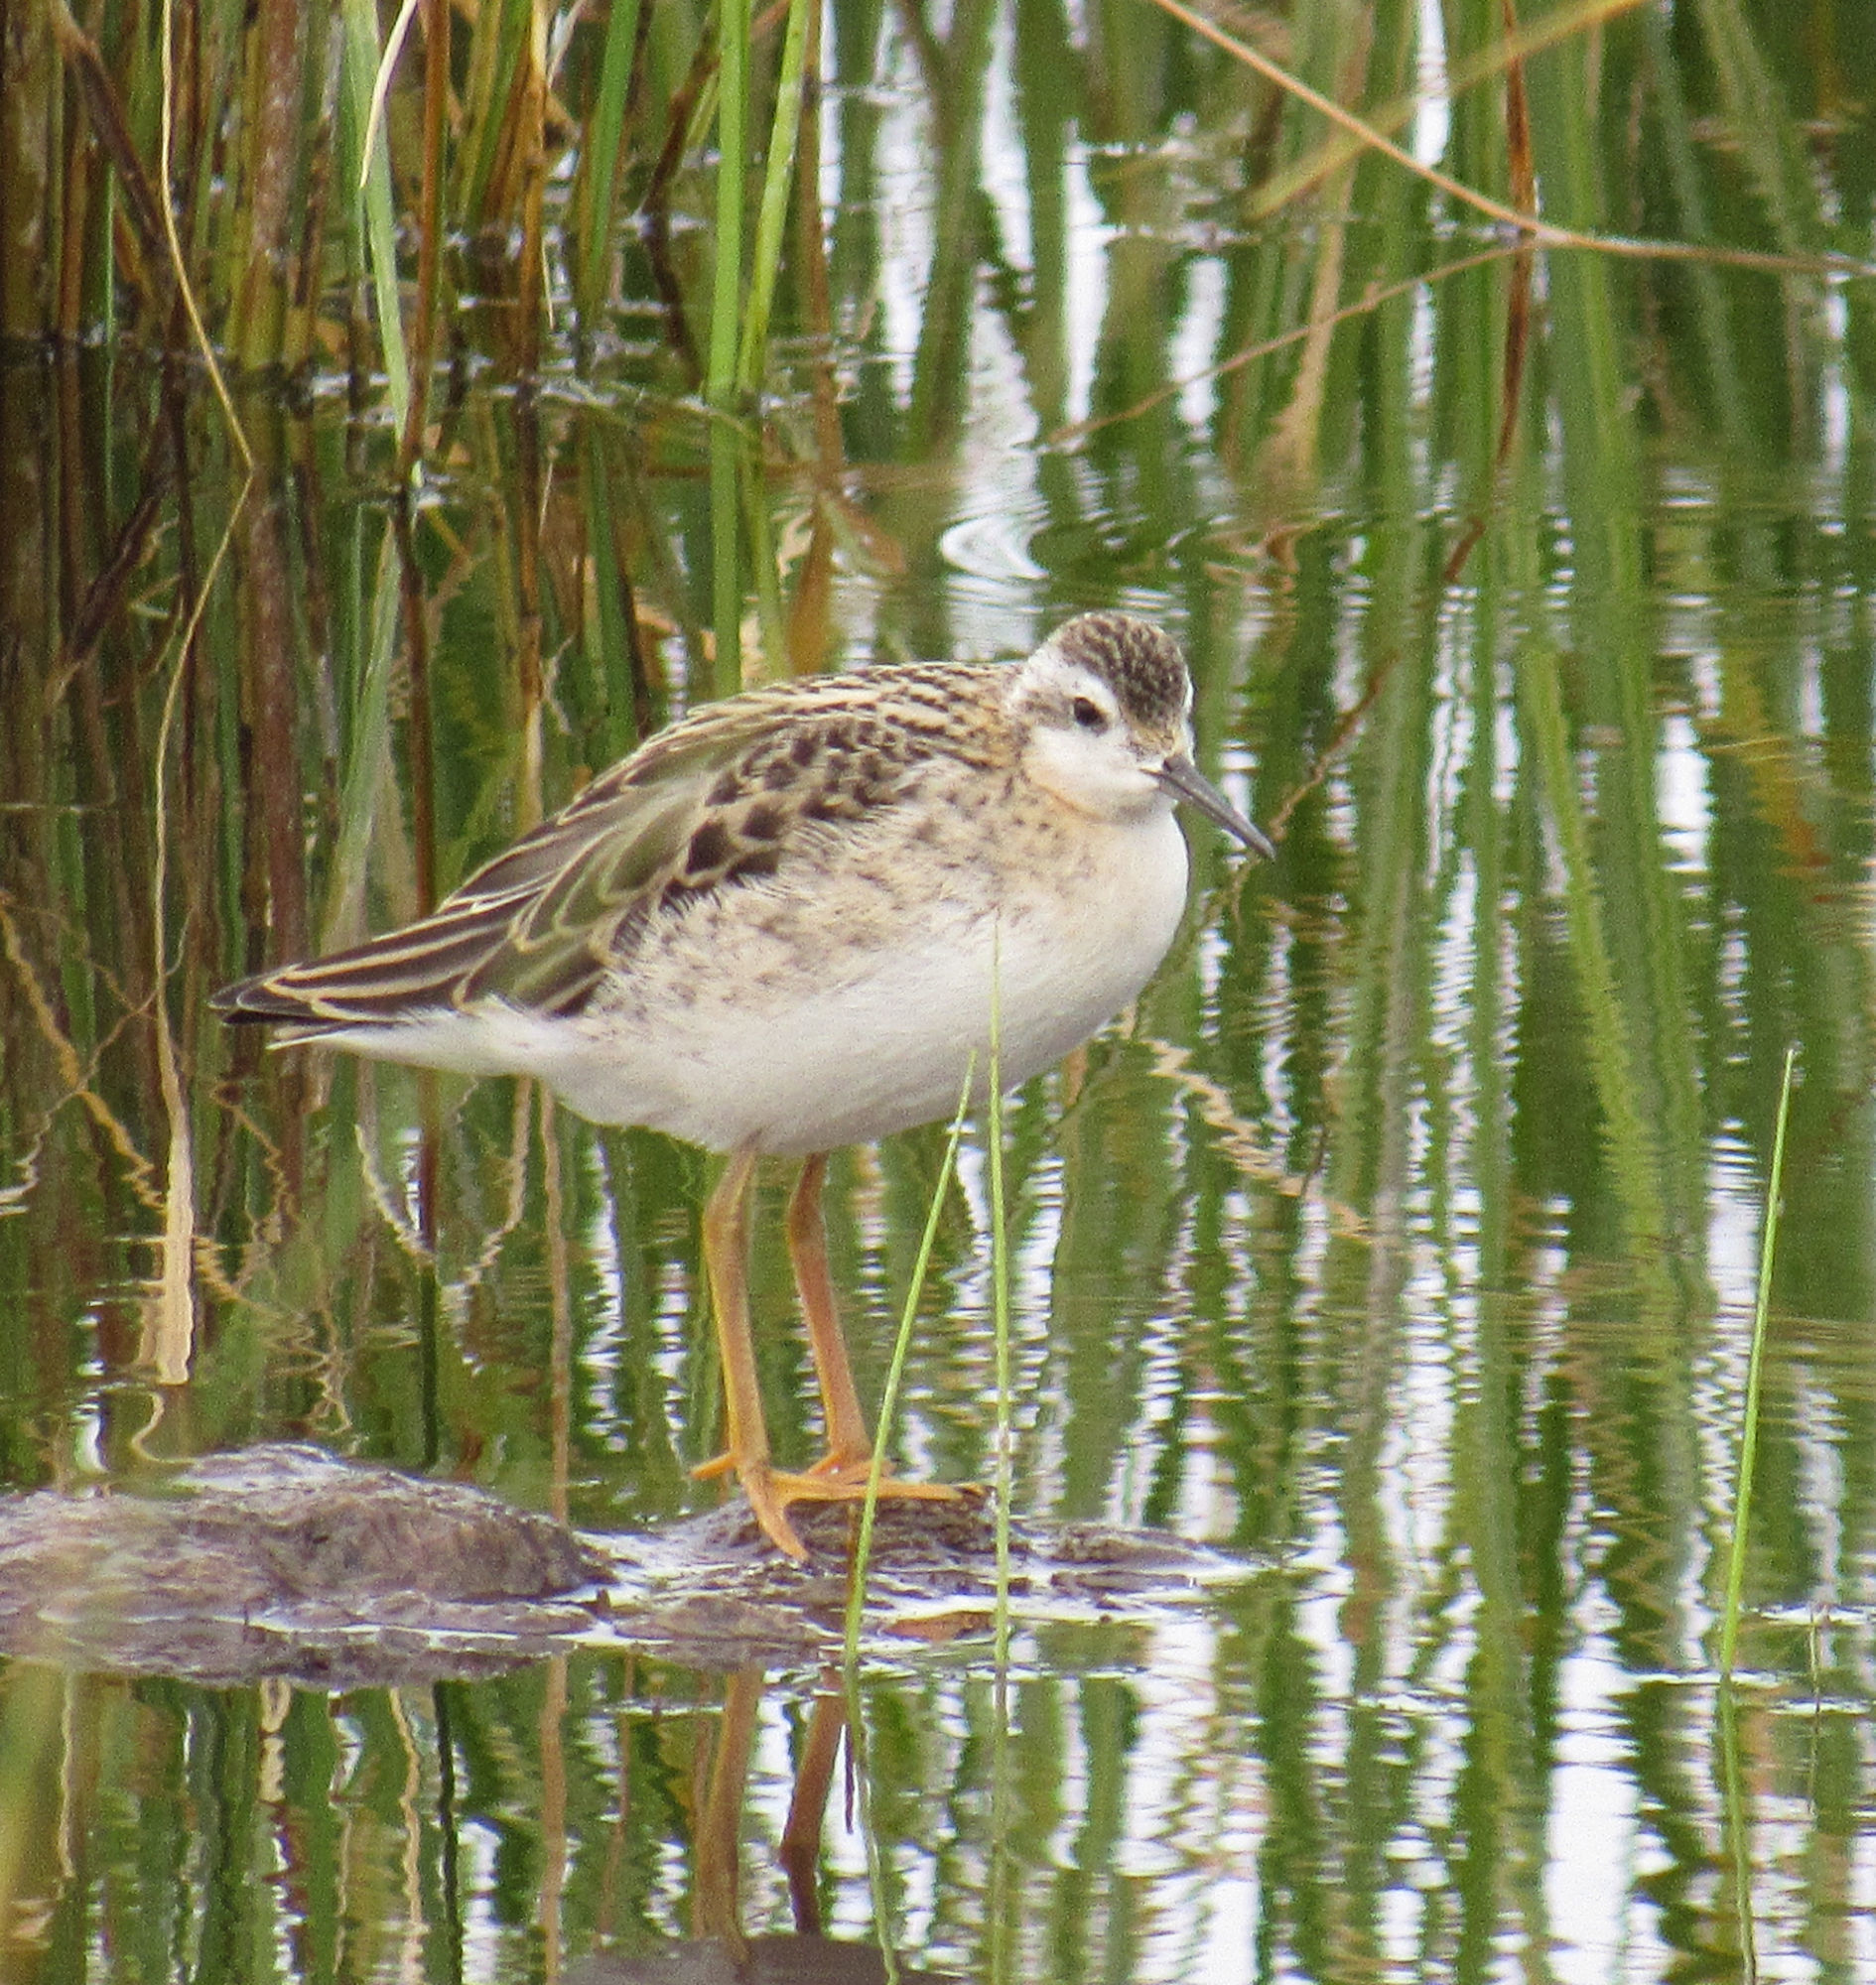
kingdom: Animalia
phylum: Chordata
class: Aves
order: Charadriiformes
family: Scolopacidae
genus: Phalaropus
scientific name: Phalaropus tricolor
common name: Wilson's phalarope
